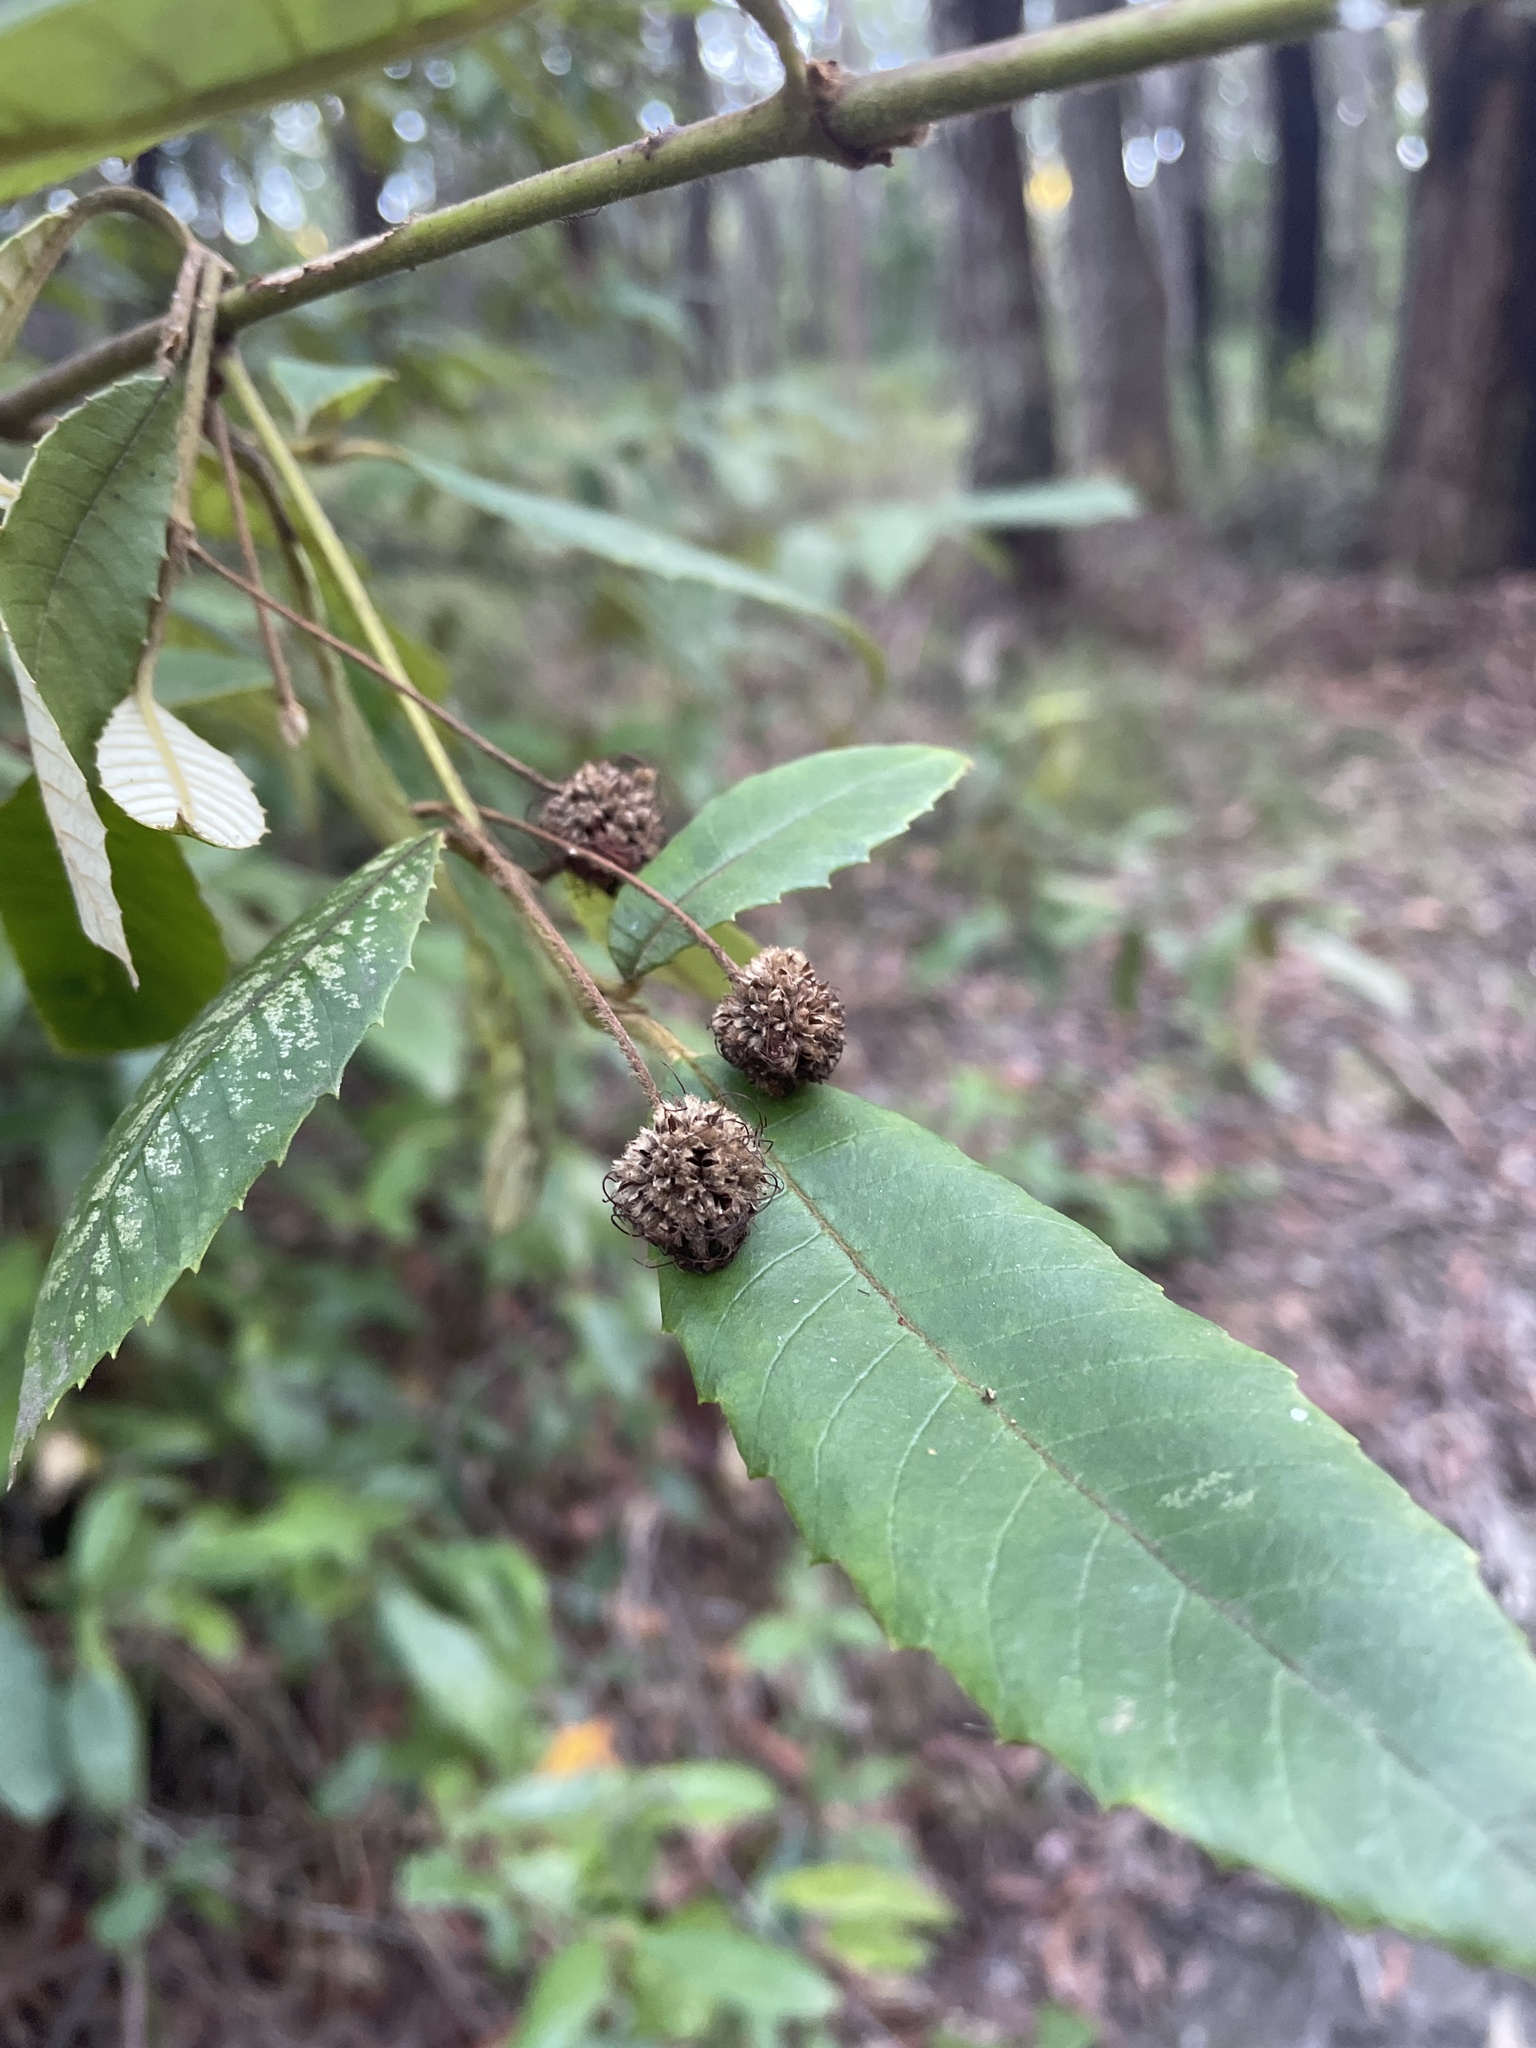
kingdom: Plantae
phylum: Tracheophyta
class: Magnoliopsida
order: Oxalidales
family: Cunoniaceae
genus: Callicoma
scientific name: Callicoma serratifolia
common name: Black wattle
